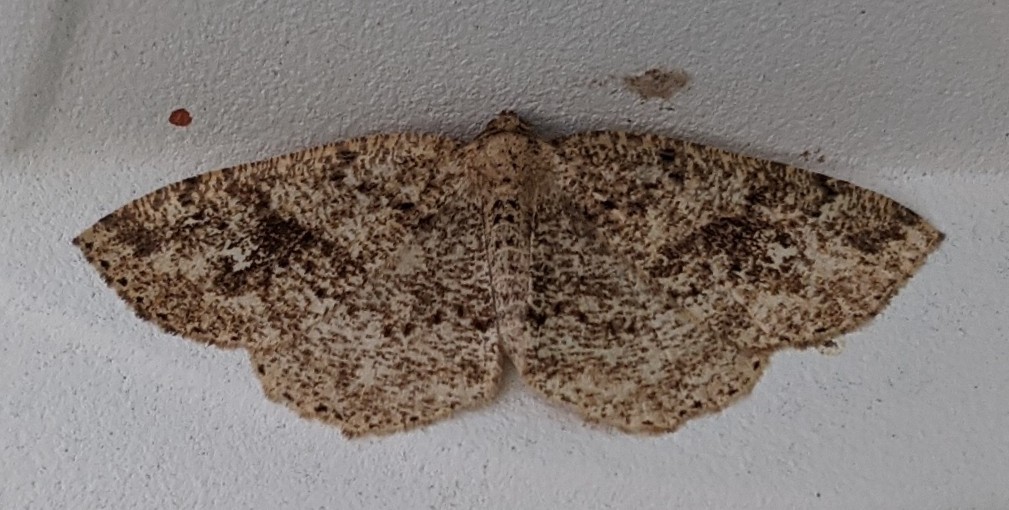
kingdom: Animalia
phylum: Arthropoda
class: Insecta
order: Lepidoptera
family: Geometridae
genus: Homochlodes
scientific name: Homochlodes fritillaria
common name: Pale homochlodes
